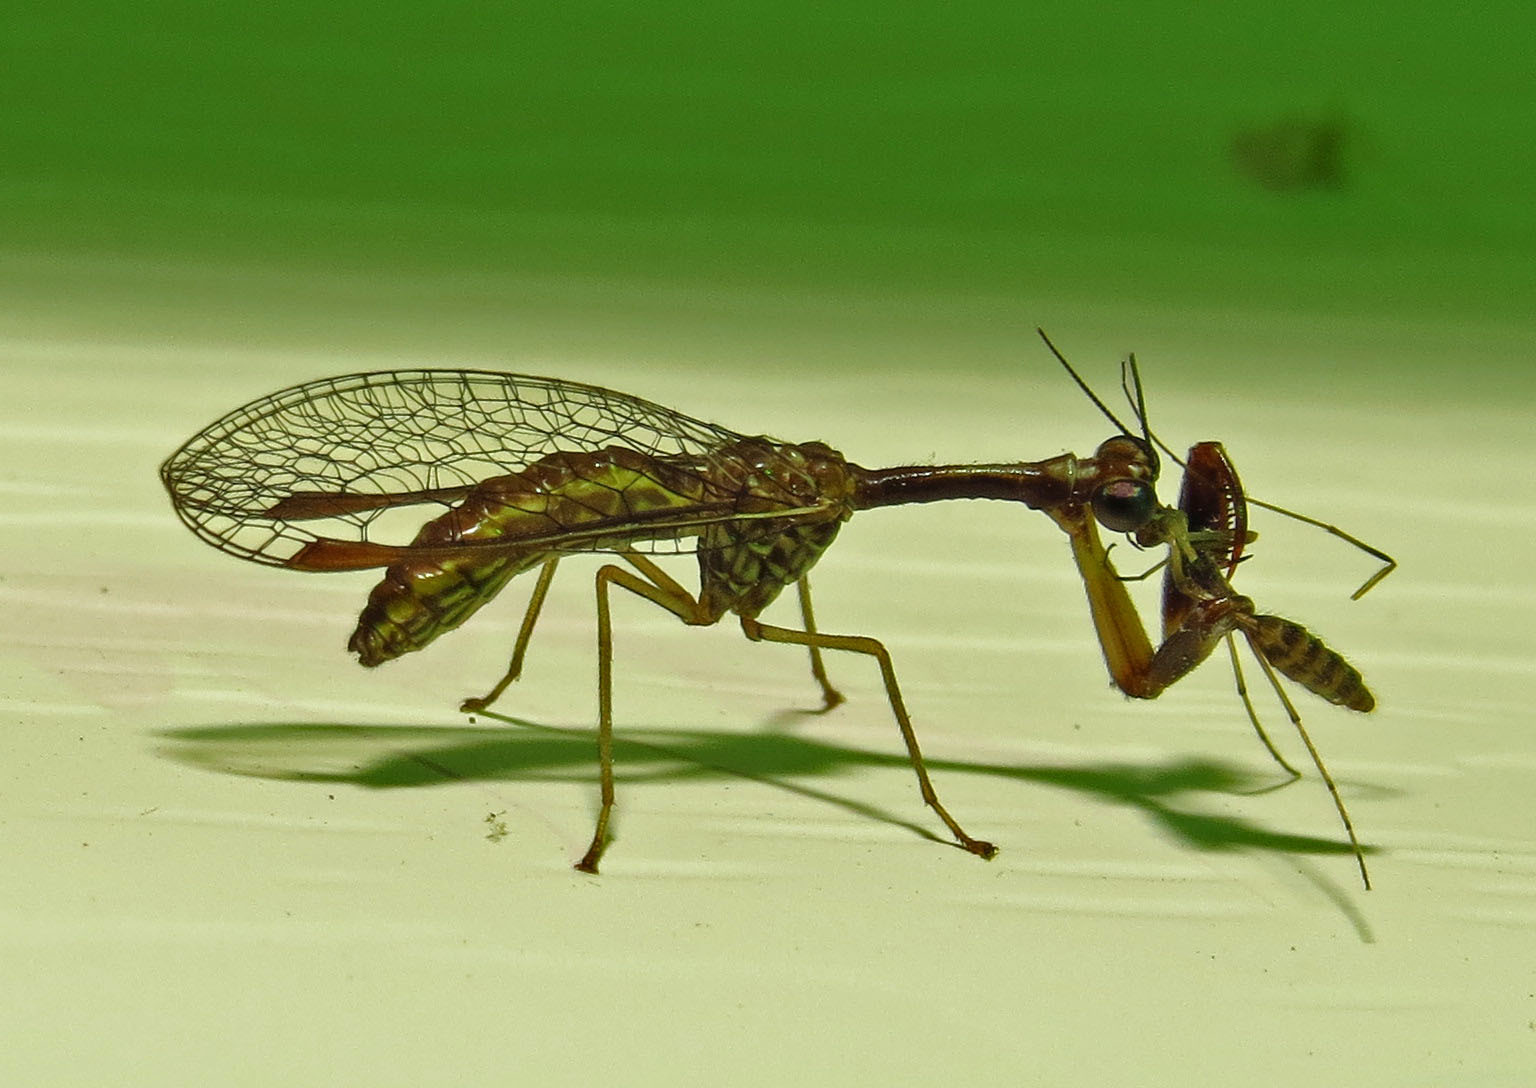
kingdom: Animalia
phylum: Arthropoda
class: Insecta
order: Neuroptera
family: Mantispidae
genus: Leptomantispa
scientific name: Leptomantispa pulchella
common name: Stevens's mantidfly
